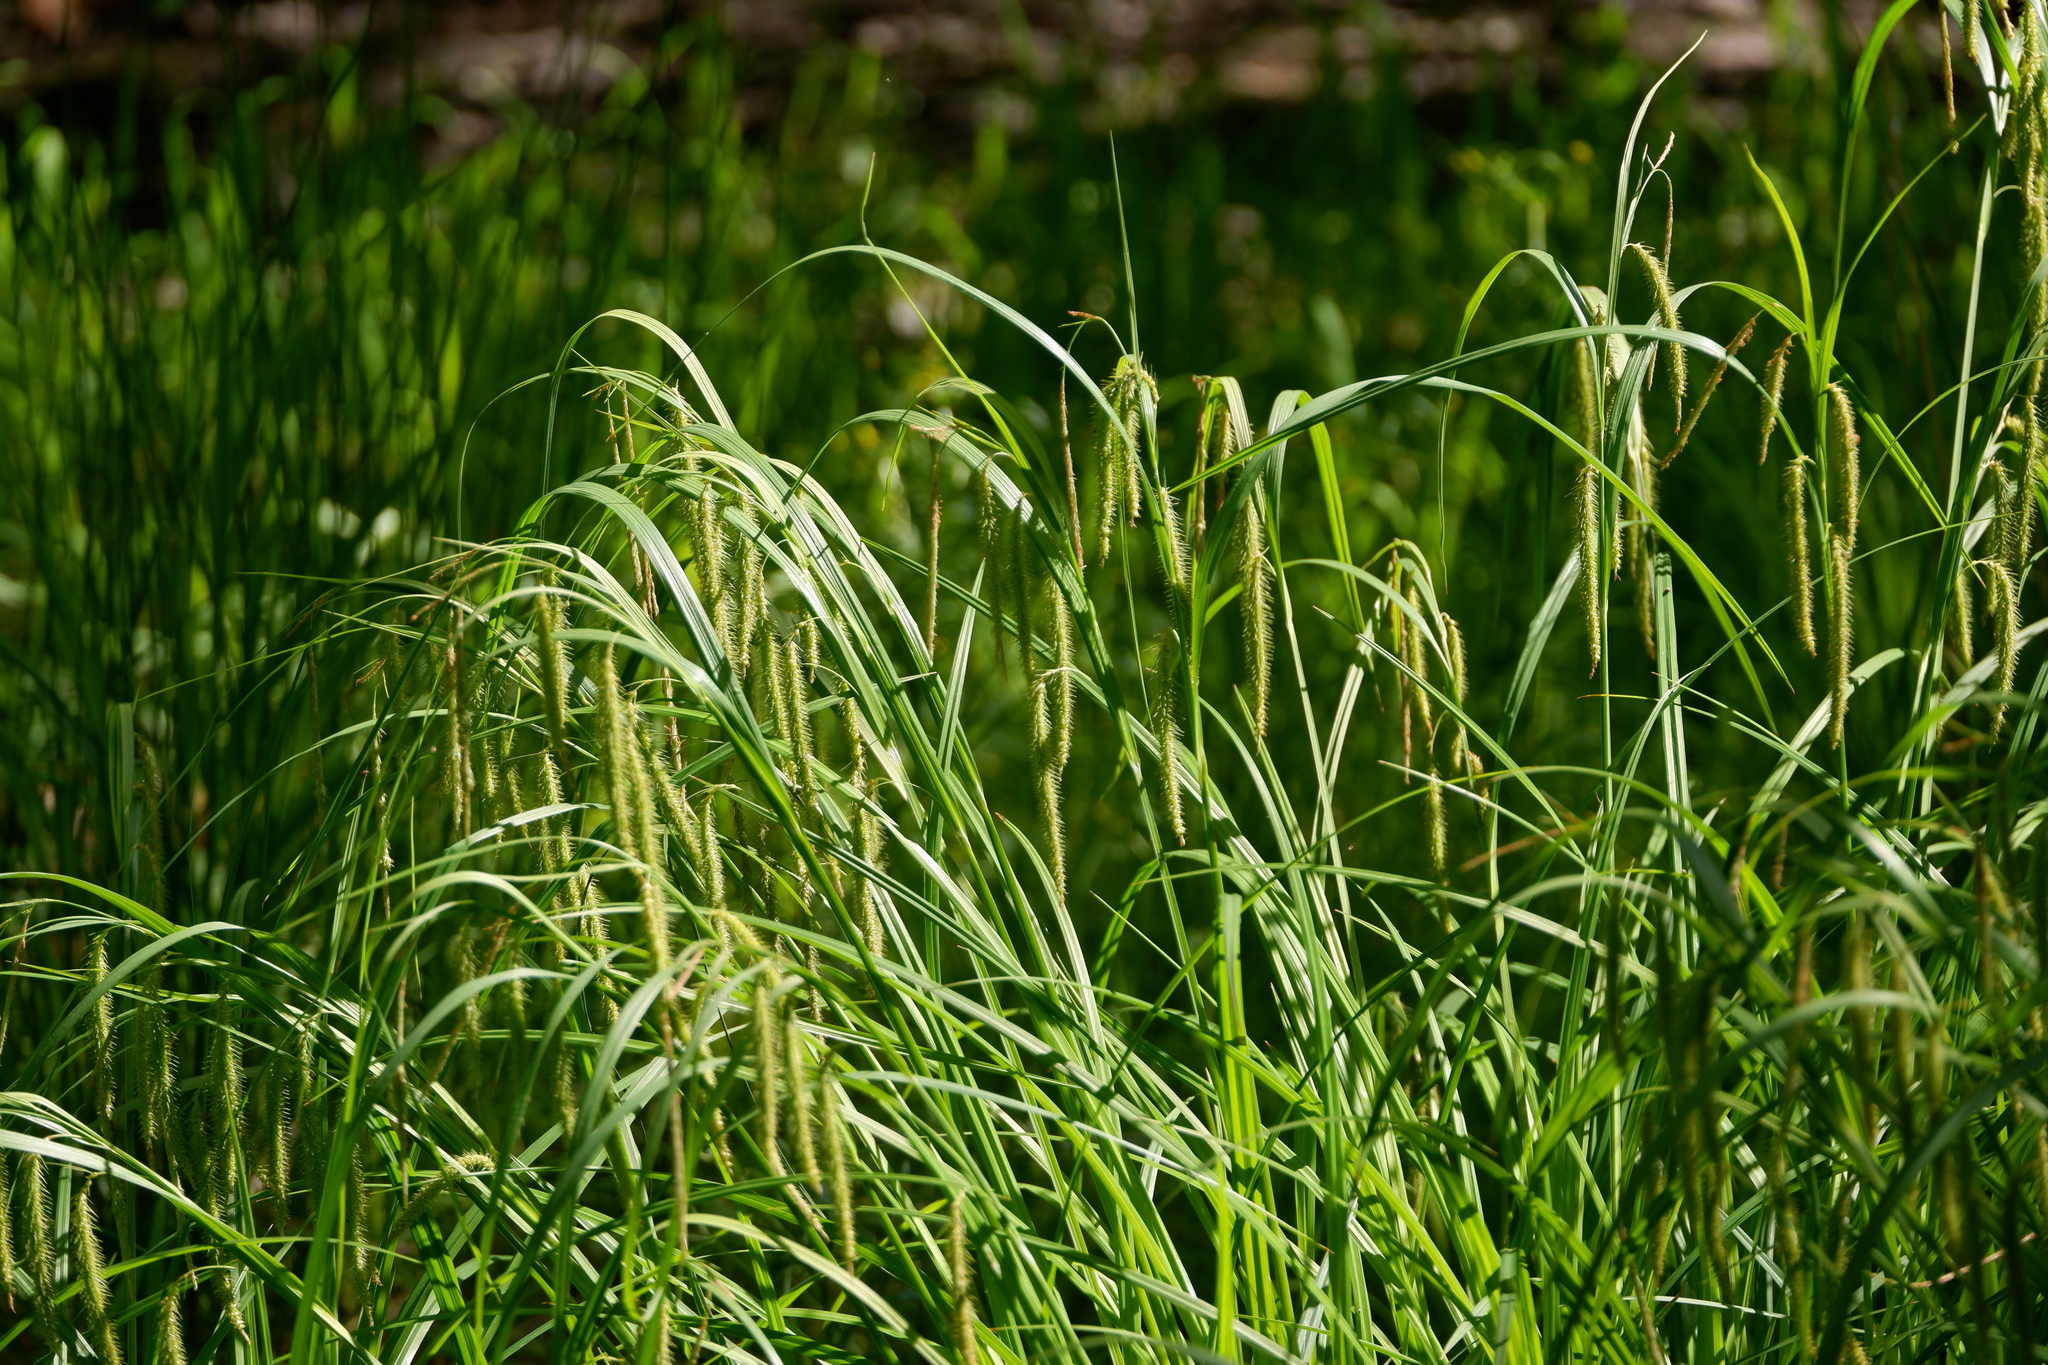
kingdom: Plantae
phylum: Tracheophyta
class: Liliopsida
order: Poales
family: Cyperaceae
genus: Carex
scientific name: Carex crinita
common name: Fringed sedge
